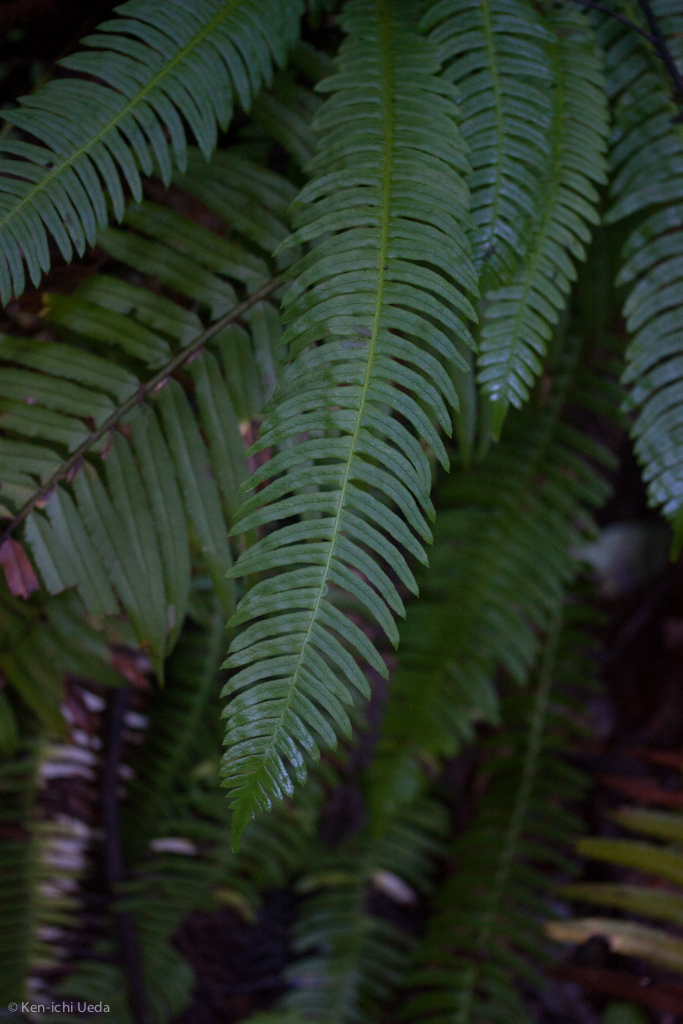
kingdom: Plantae
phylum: Tracheophyta
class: Polypodiopsida
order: Polypodiales
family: Blechnaceae
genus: Struthiopteris
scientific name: Struthiopteris spicant
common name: Deer fern
